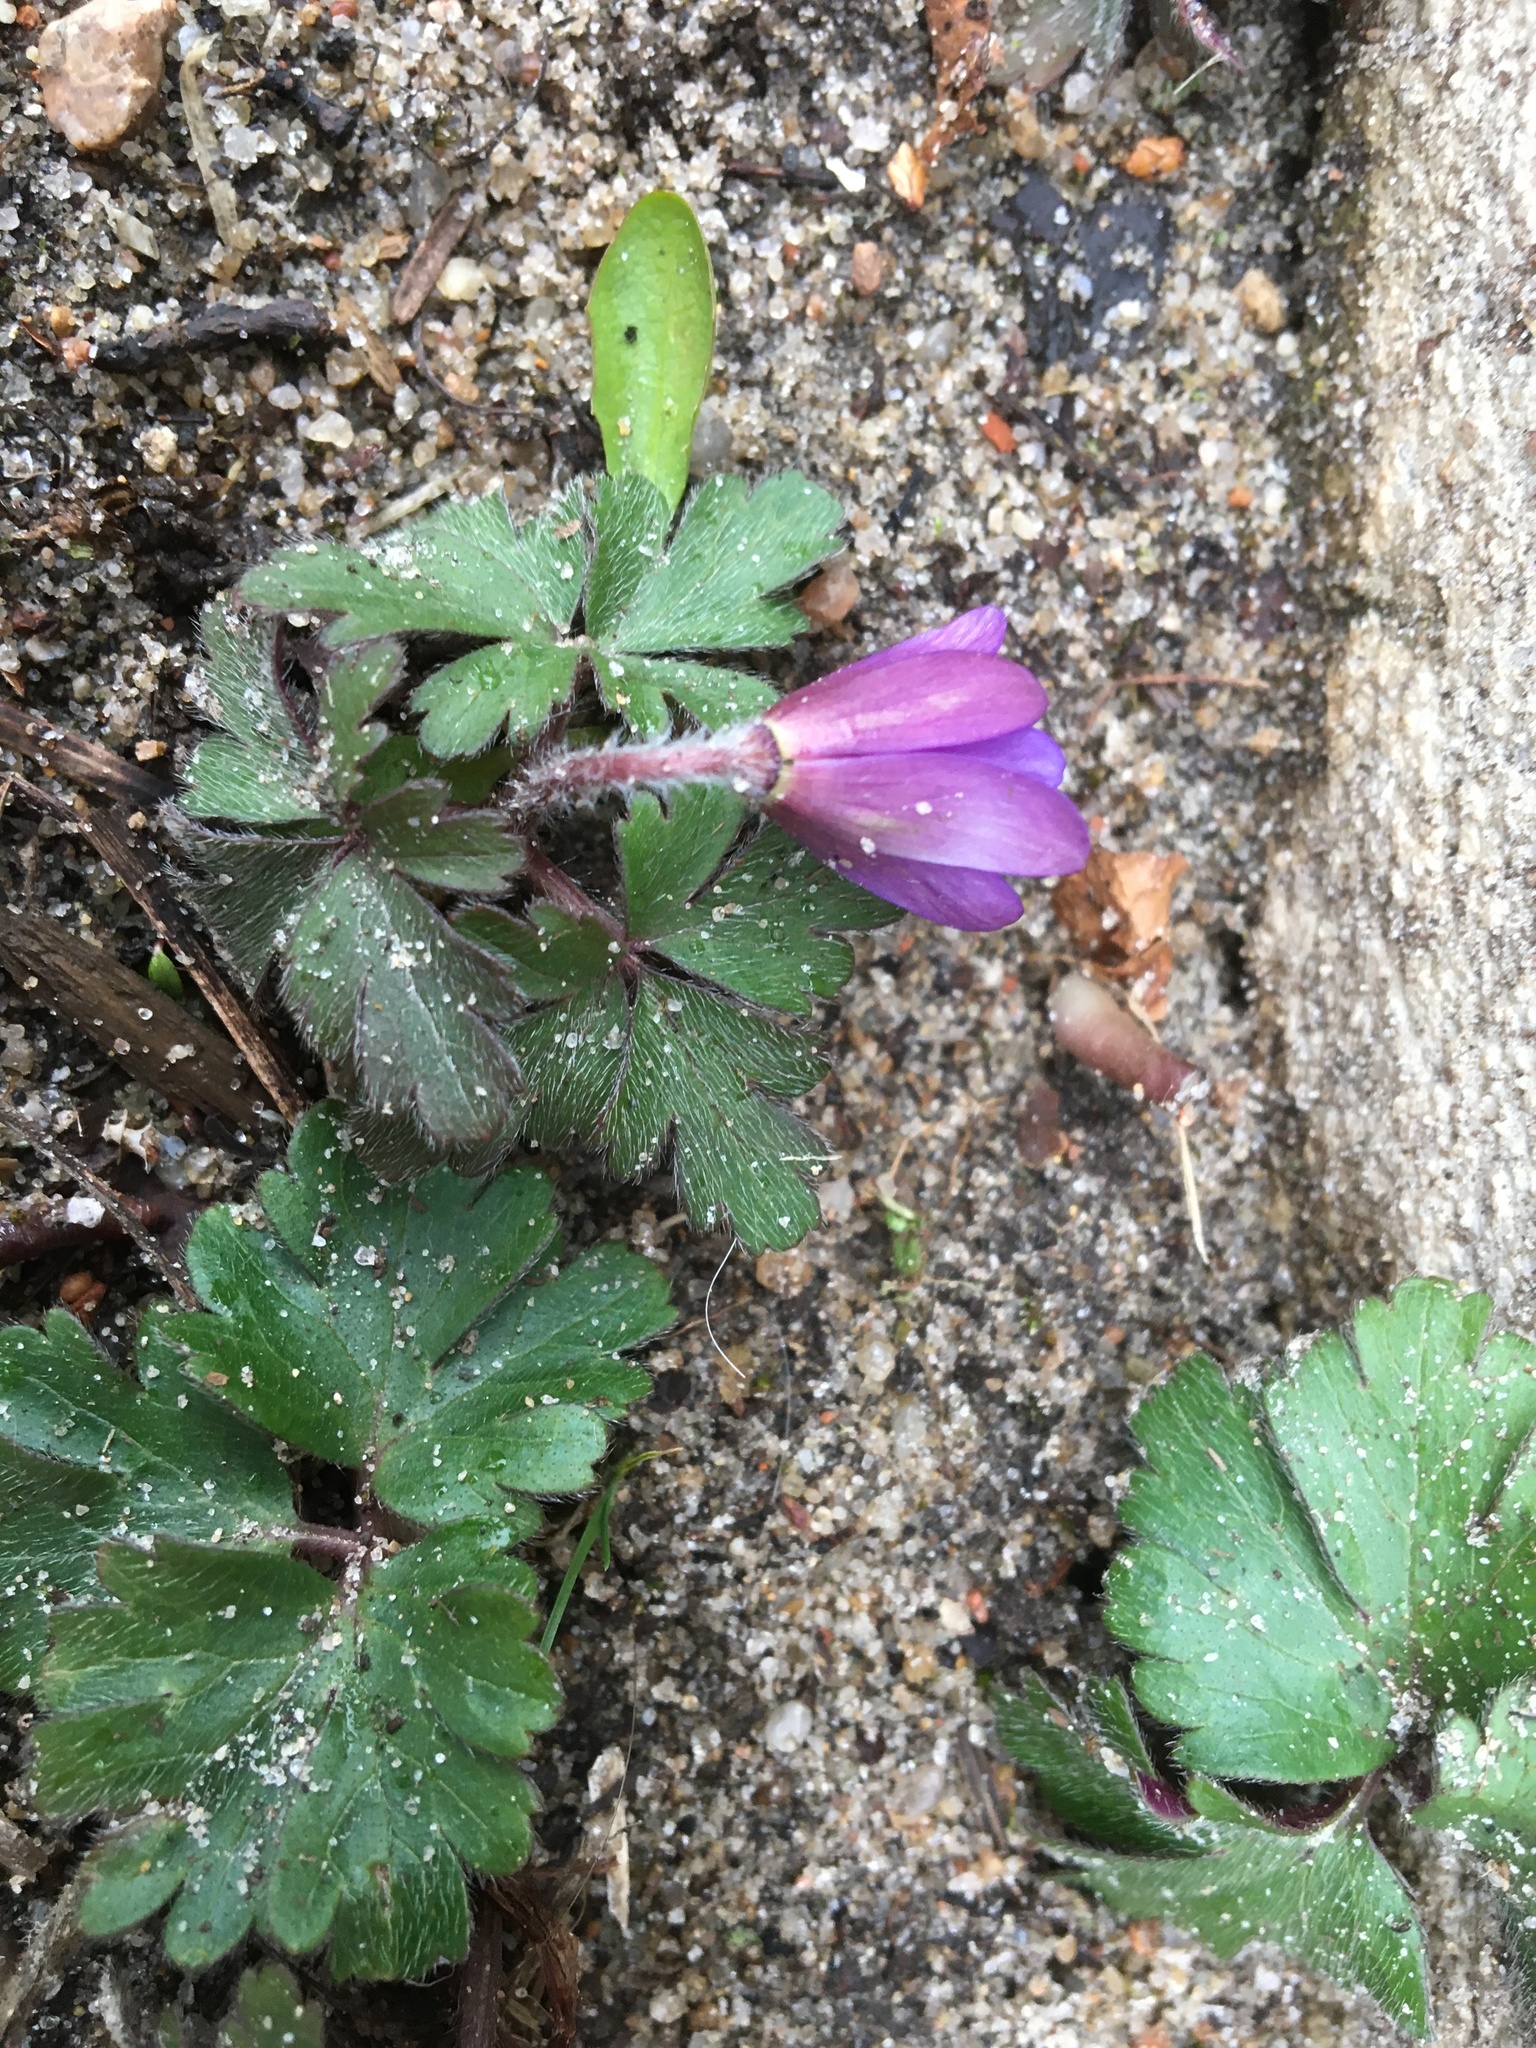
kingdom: Plantae
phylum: Tracheophyta
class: Magnoliopsida
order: Ranunculales
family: Ranunculaceae
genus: Anemone
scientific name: Anemone blanda
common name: Balkan anemone
